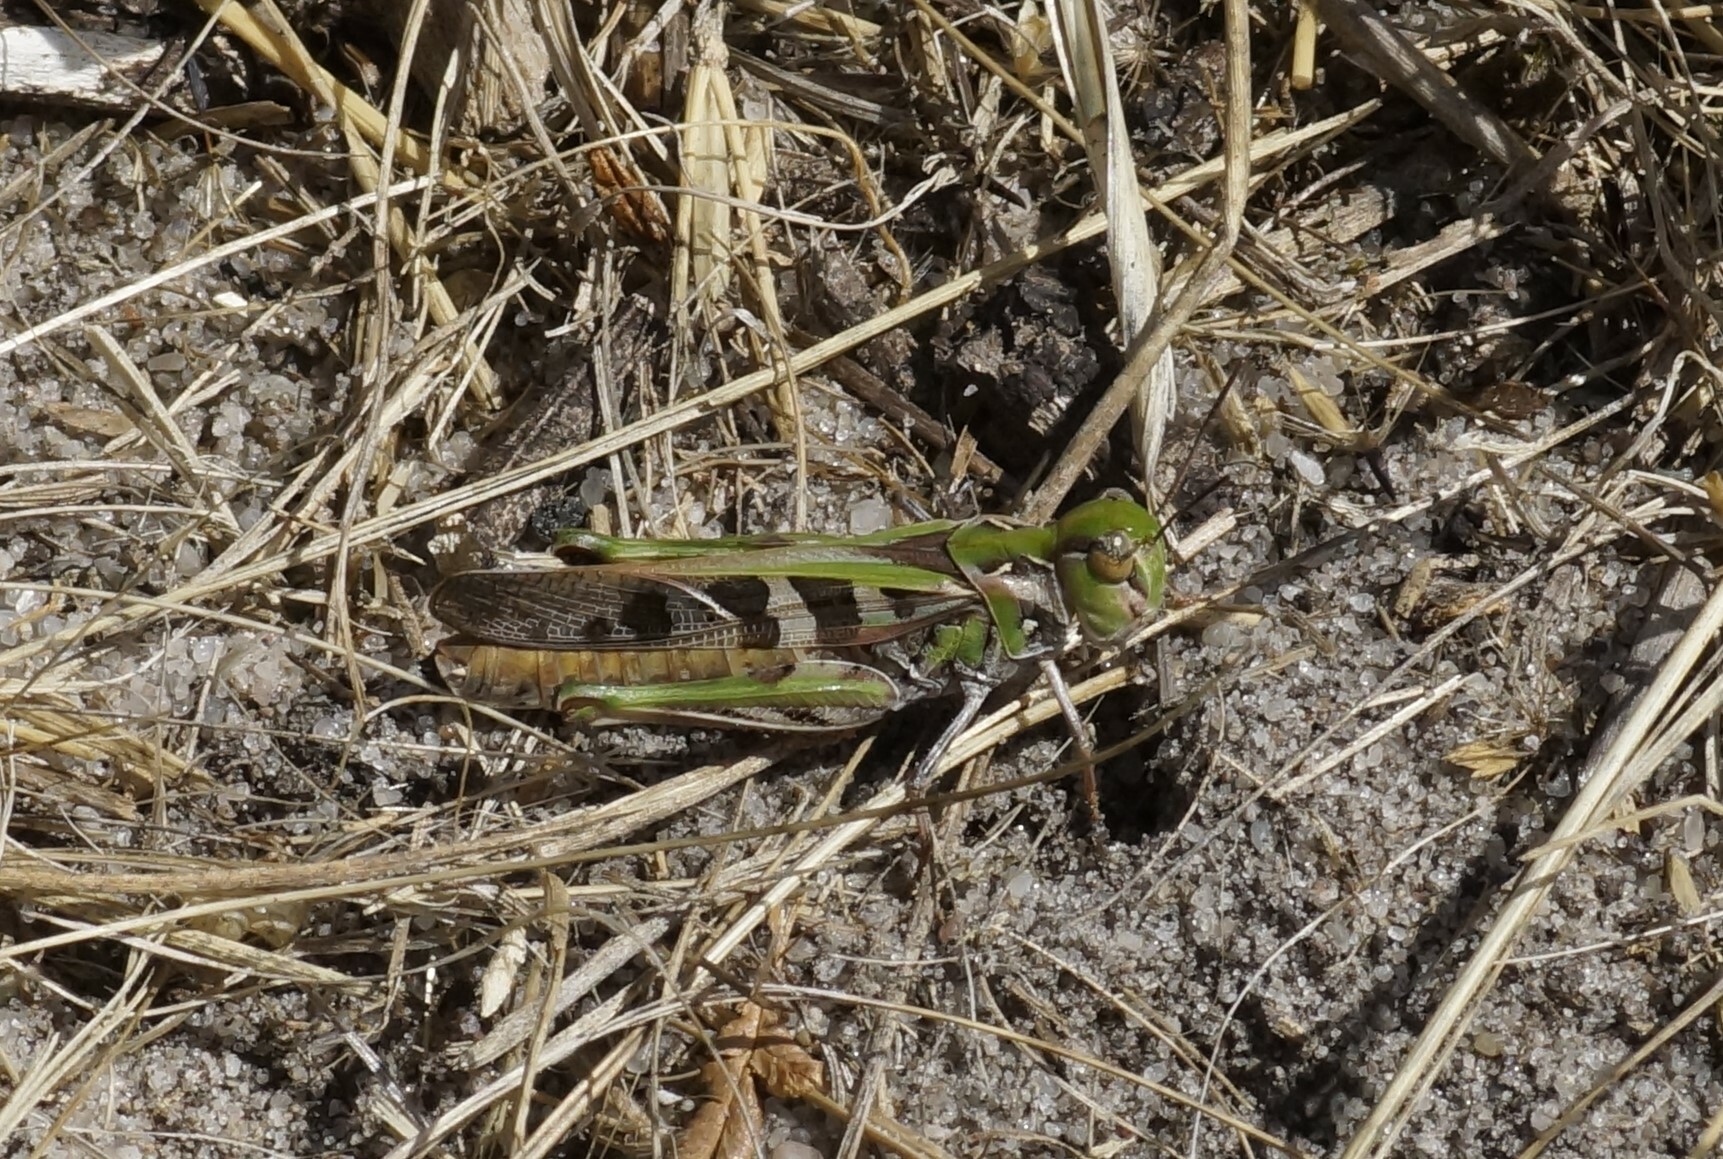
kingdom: Animalia
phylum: Arthropoda
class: Insecta
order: Orthoptera
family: Acrididae
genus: Oedaleus
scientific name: Oedaleus australis
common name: Eastern oedaleus
